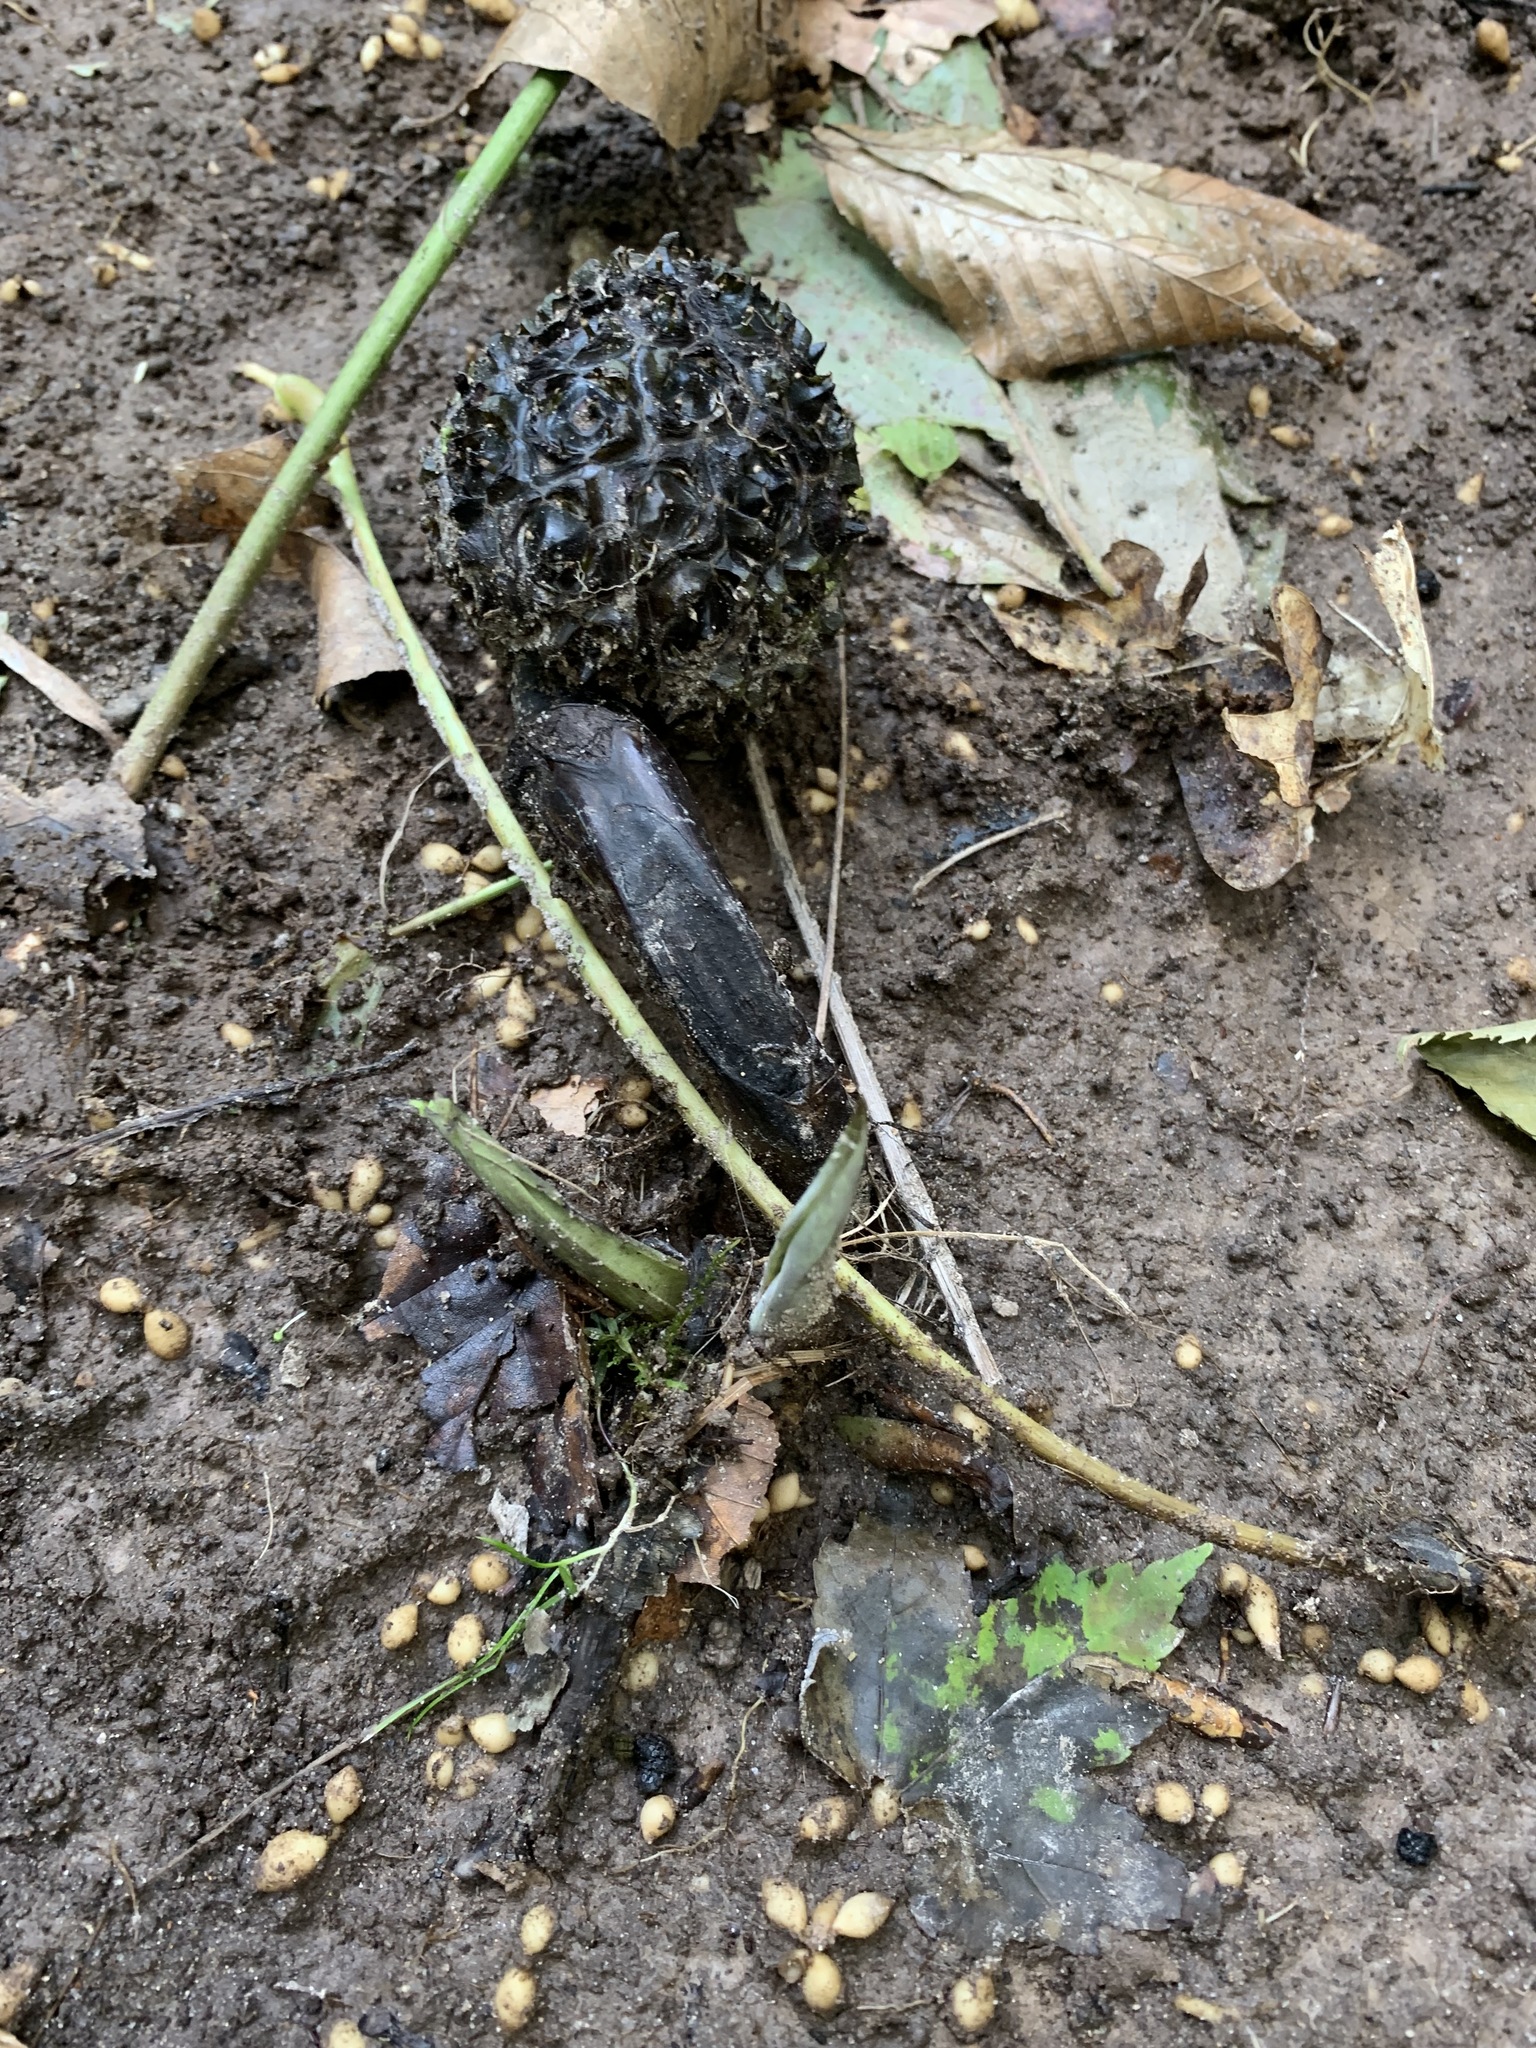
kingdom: Plantae
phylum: Tracheophyta
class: Liliopsida
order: Alismatales
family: Araceae
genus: Symplocarpus
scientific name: Symplocarpus foetidus
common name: Eastern skunk cabbage
